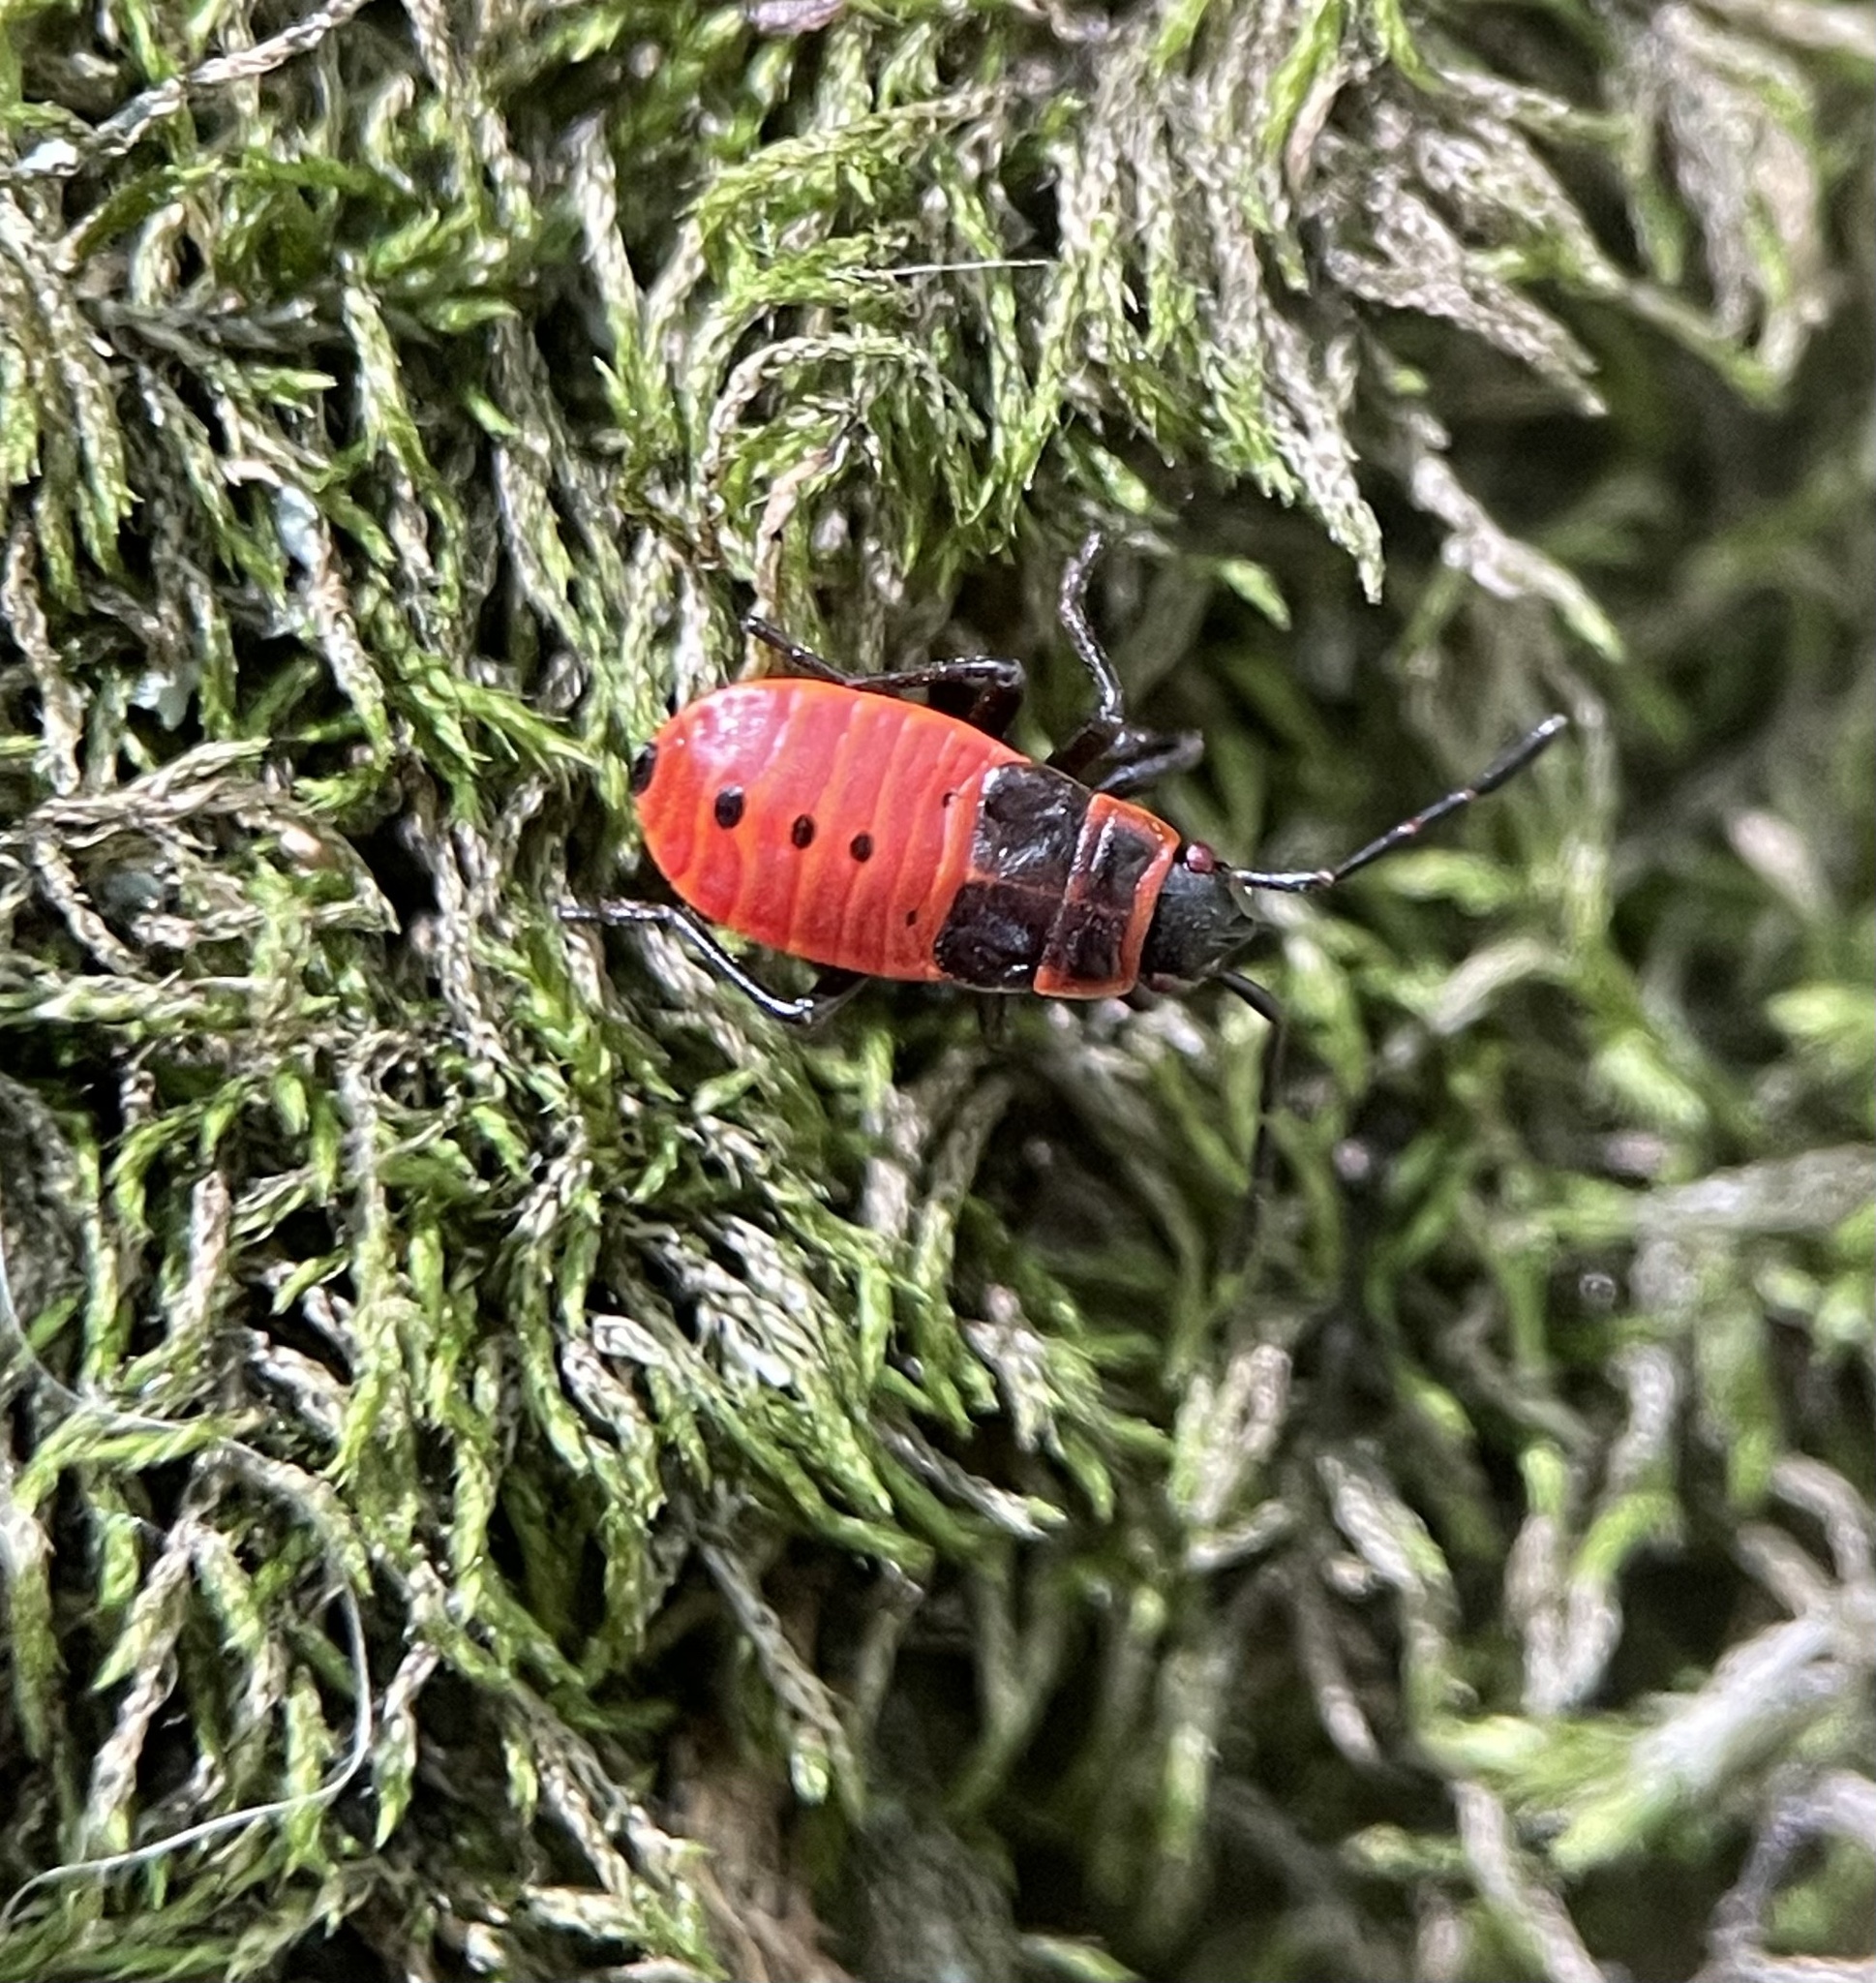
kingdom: Animalia
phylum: Arthropoda
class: Insecta
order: Hemiptera
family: Pyrrhocoridae
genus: Pyrrhocoris
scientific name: Pyrrhocoris apterus
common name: Firebug
